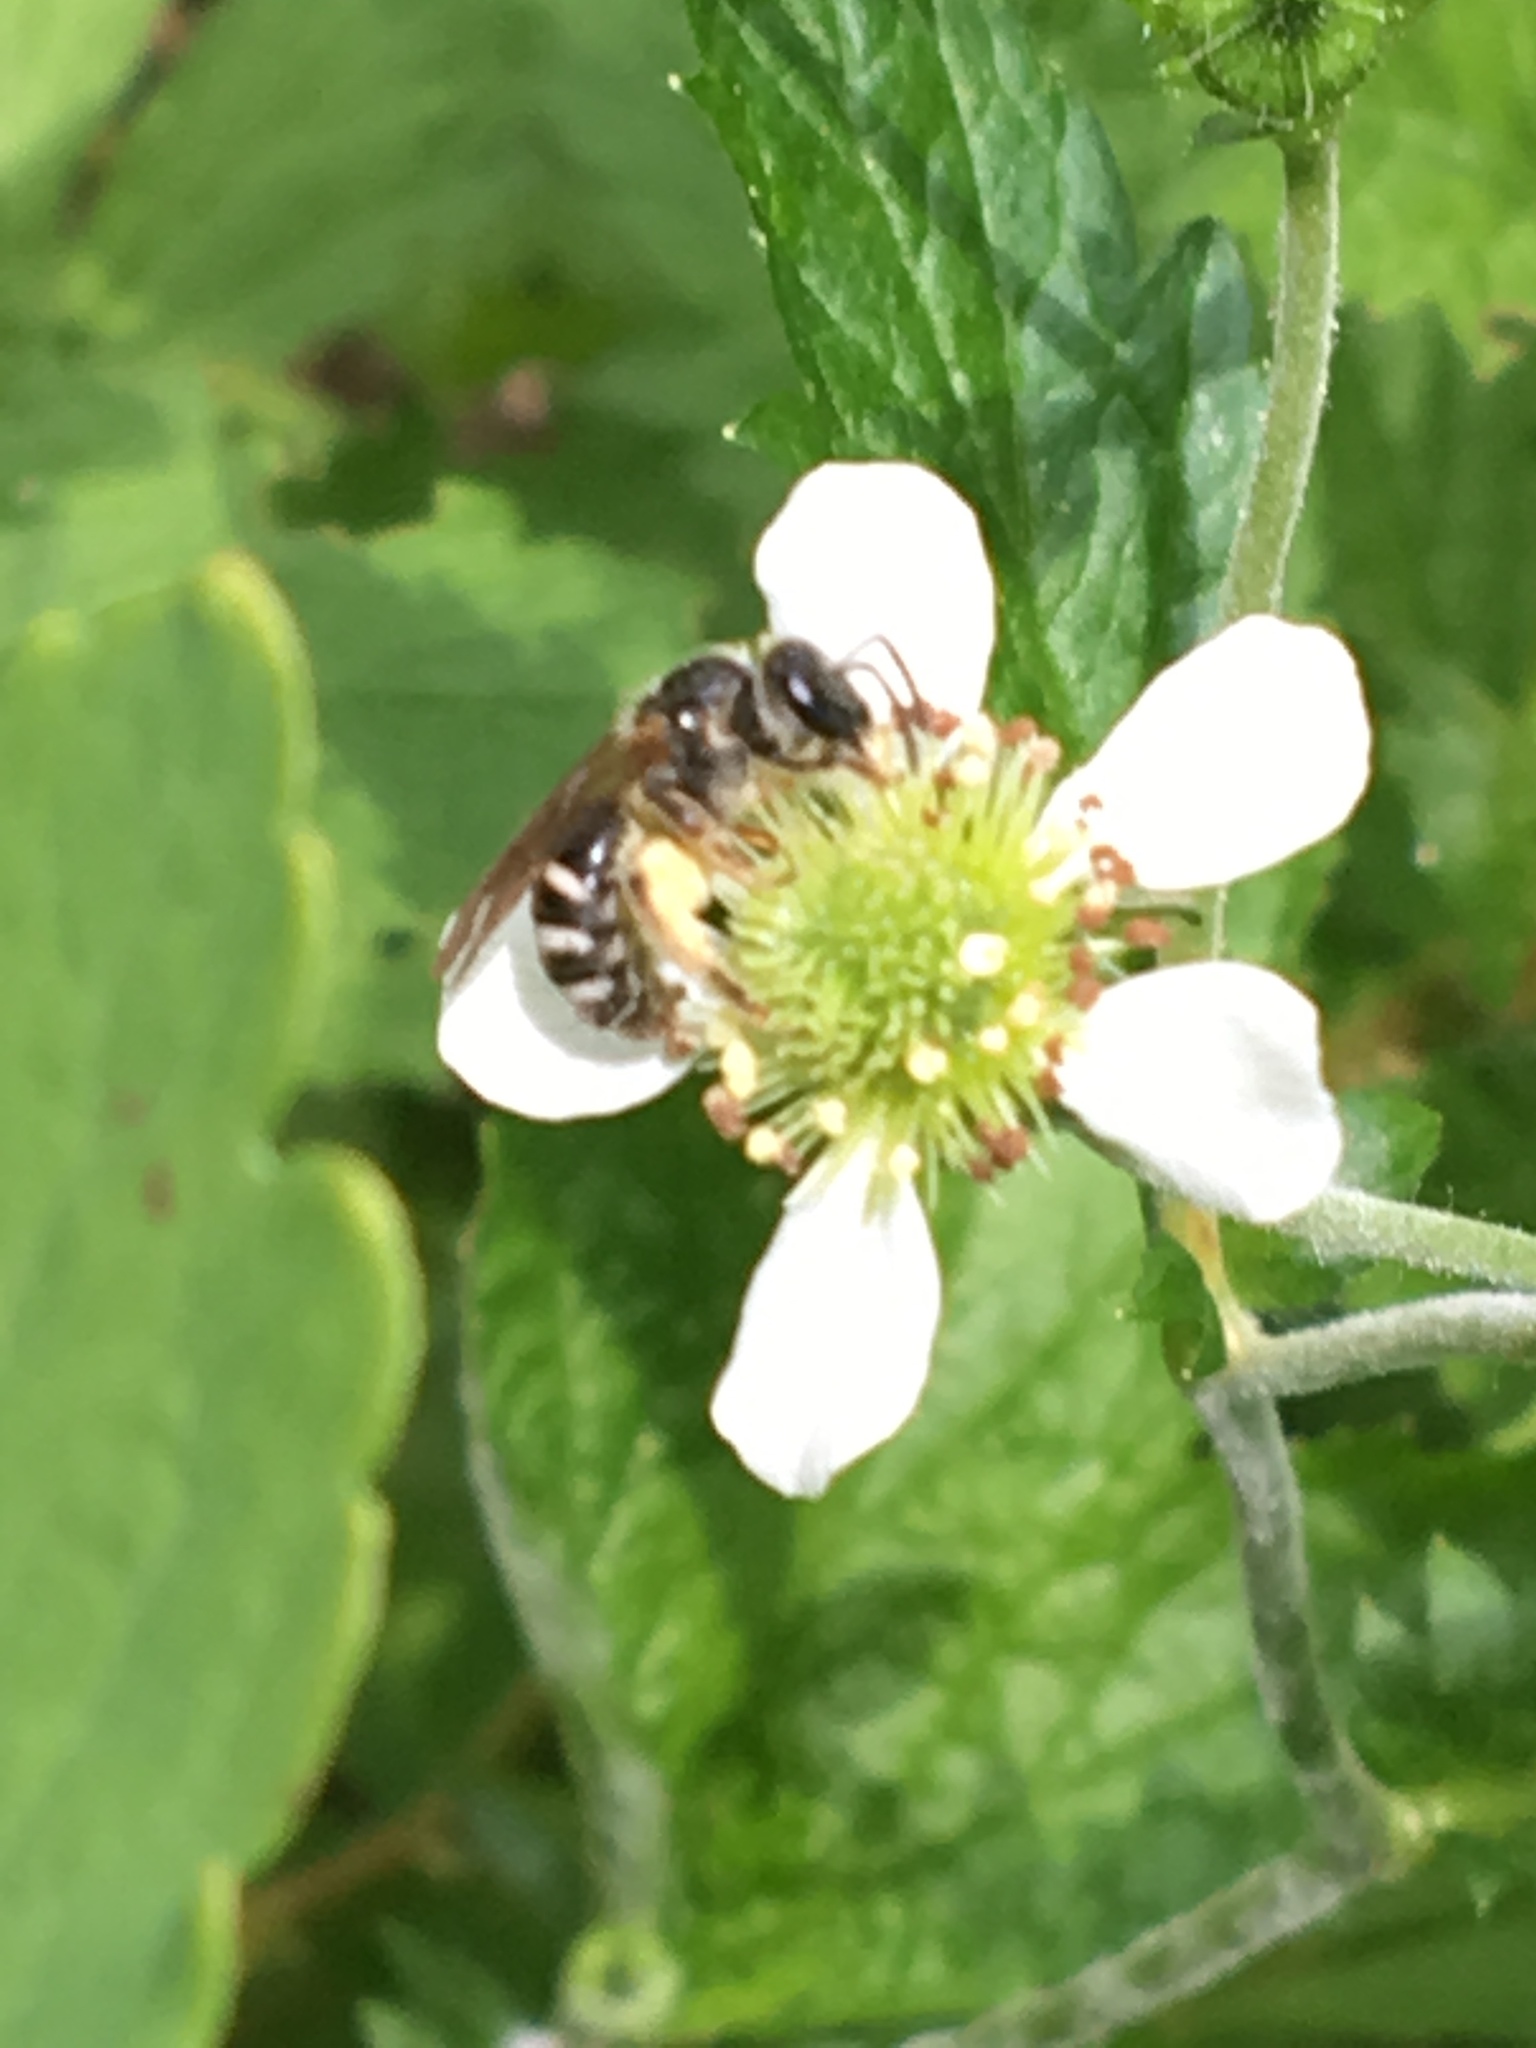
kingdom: Animalia
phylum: Arthropoda
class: Insecta
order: Hymenoptera
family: Halictidae
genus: Halictus
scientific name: Halictus ligatus
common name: Ligated furrow bee
